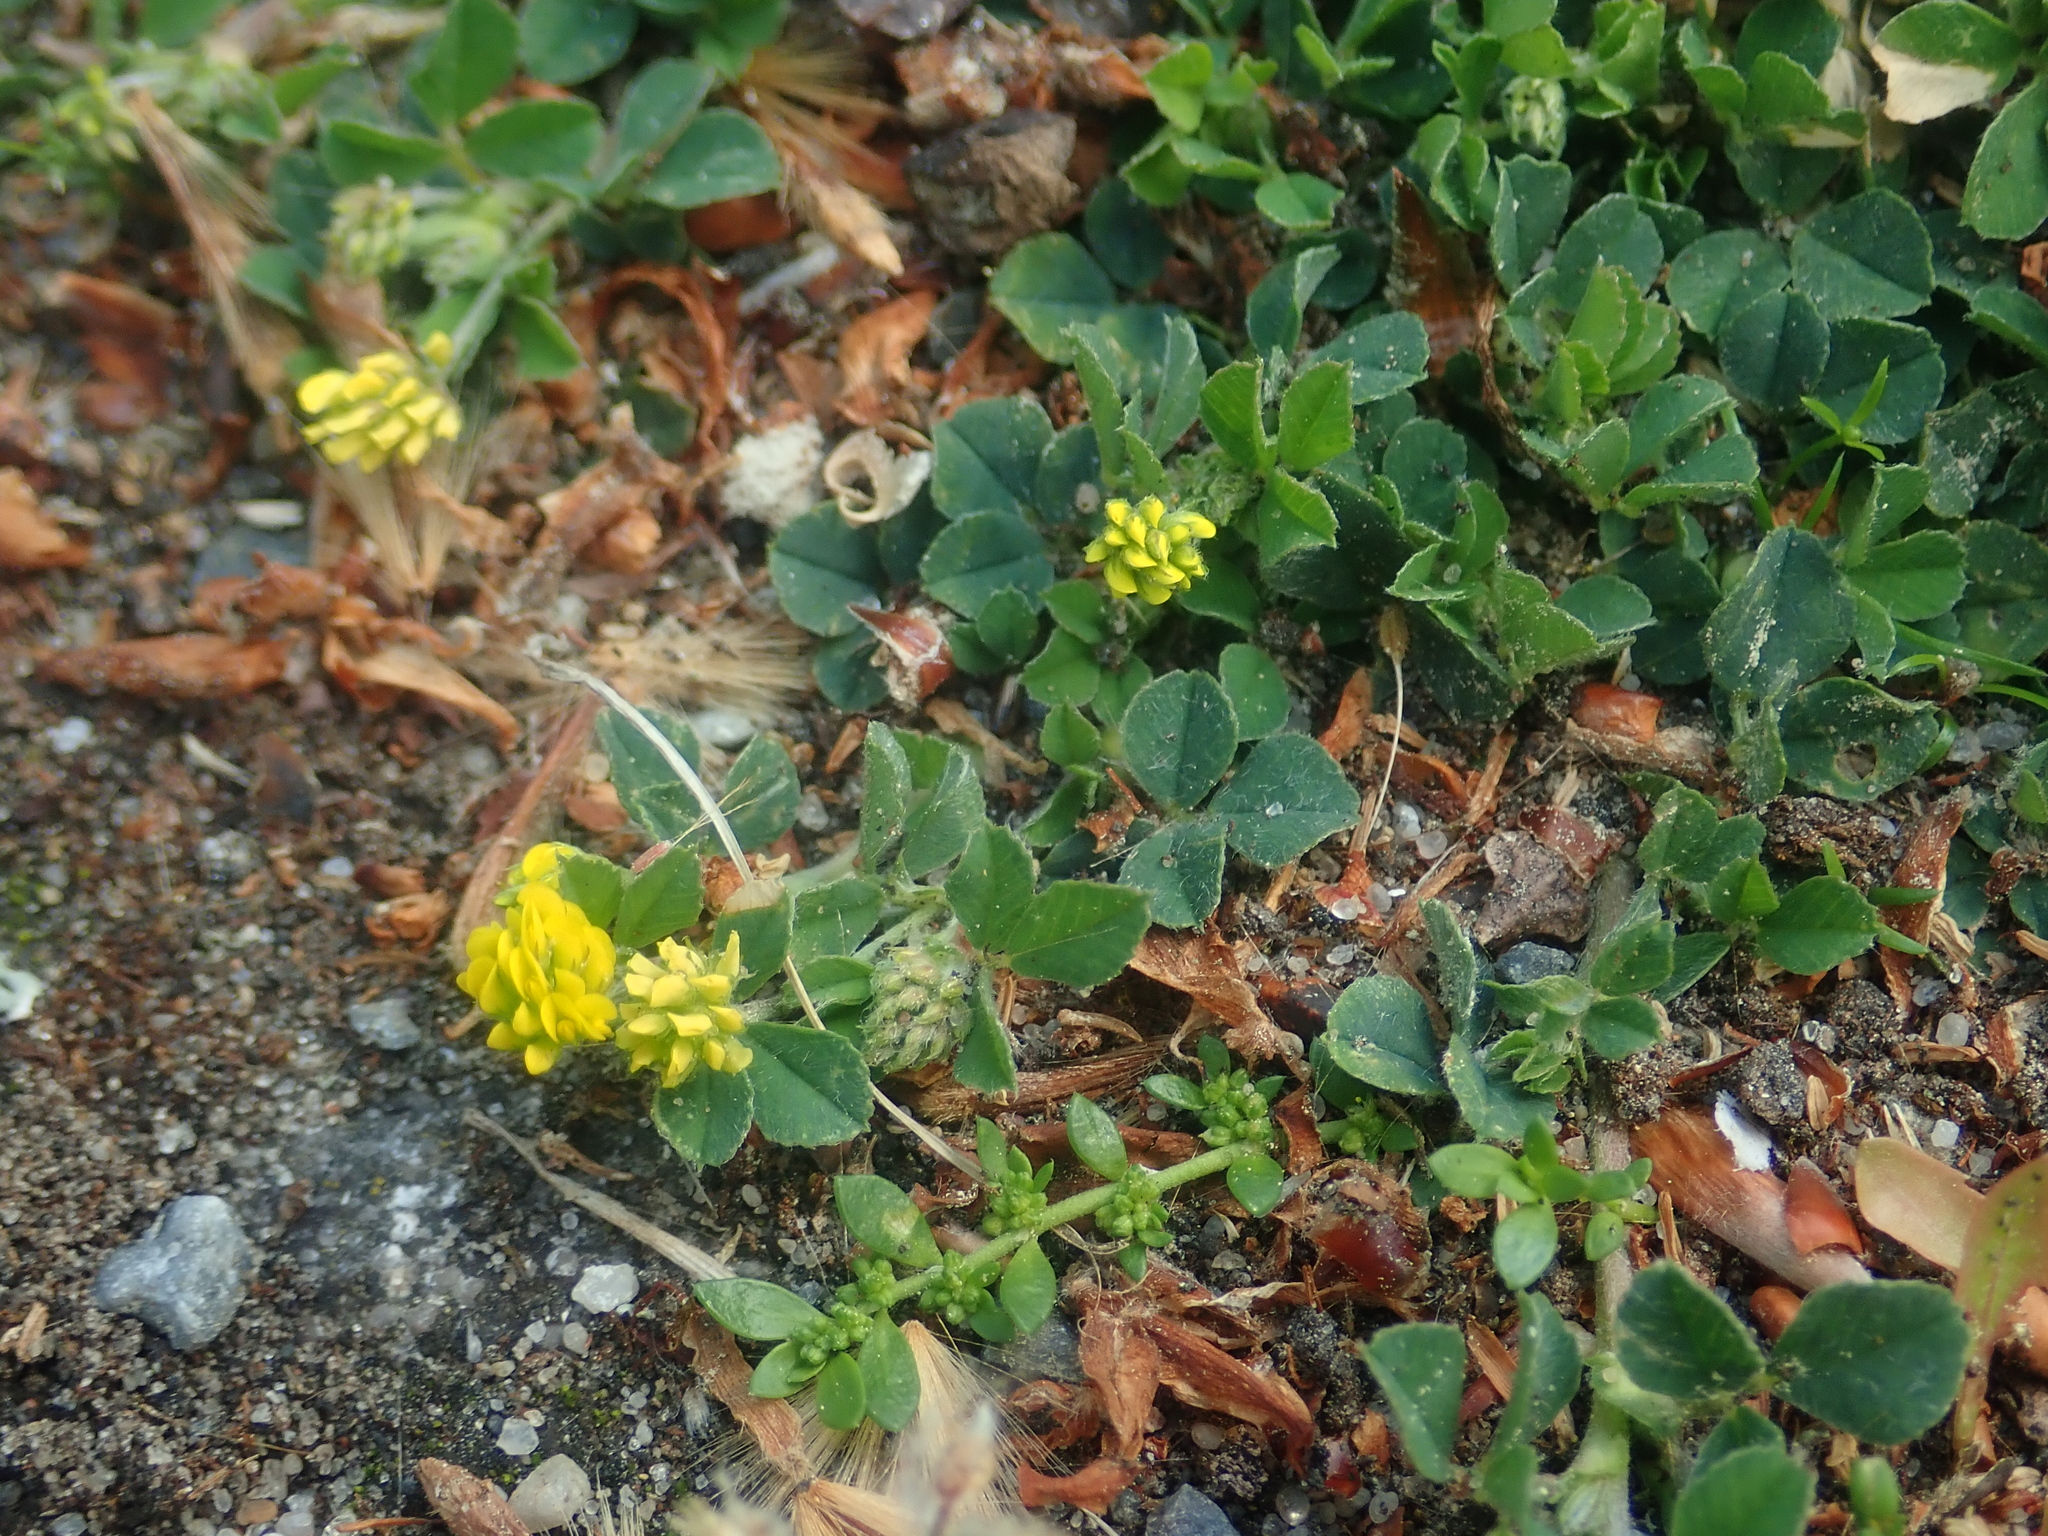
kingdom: Plantae
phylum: Tracheophyta
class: Magnoliopsida
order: Fabales
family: Fabaceae
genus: Medicago
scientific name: Medicago lupulina
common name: Black medick
